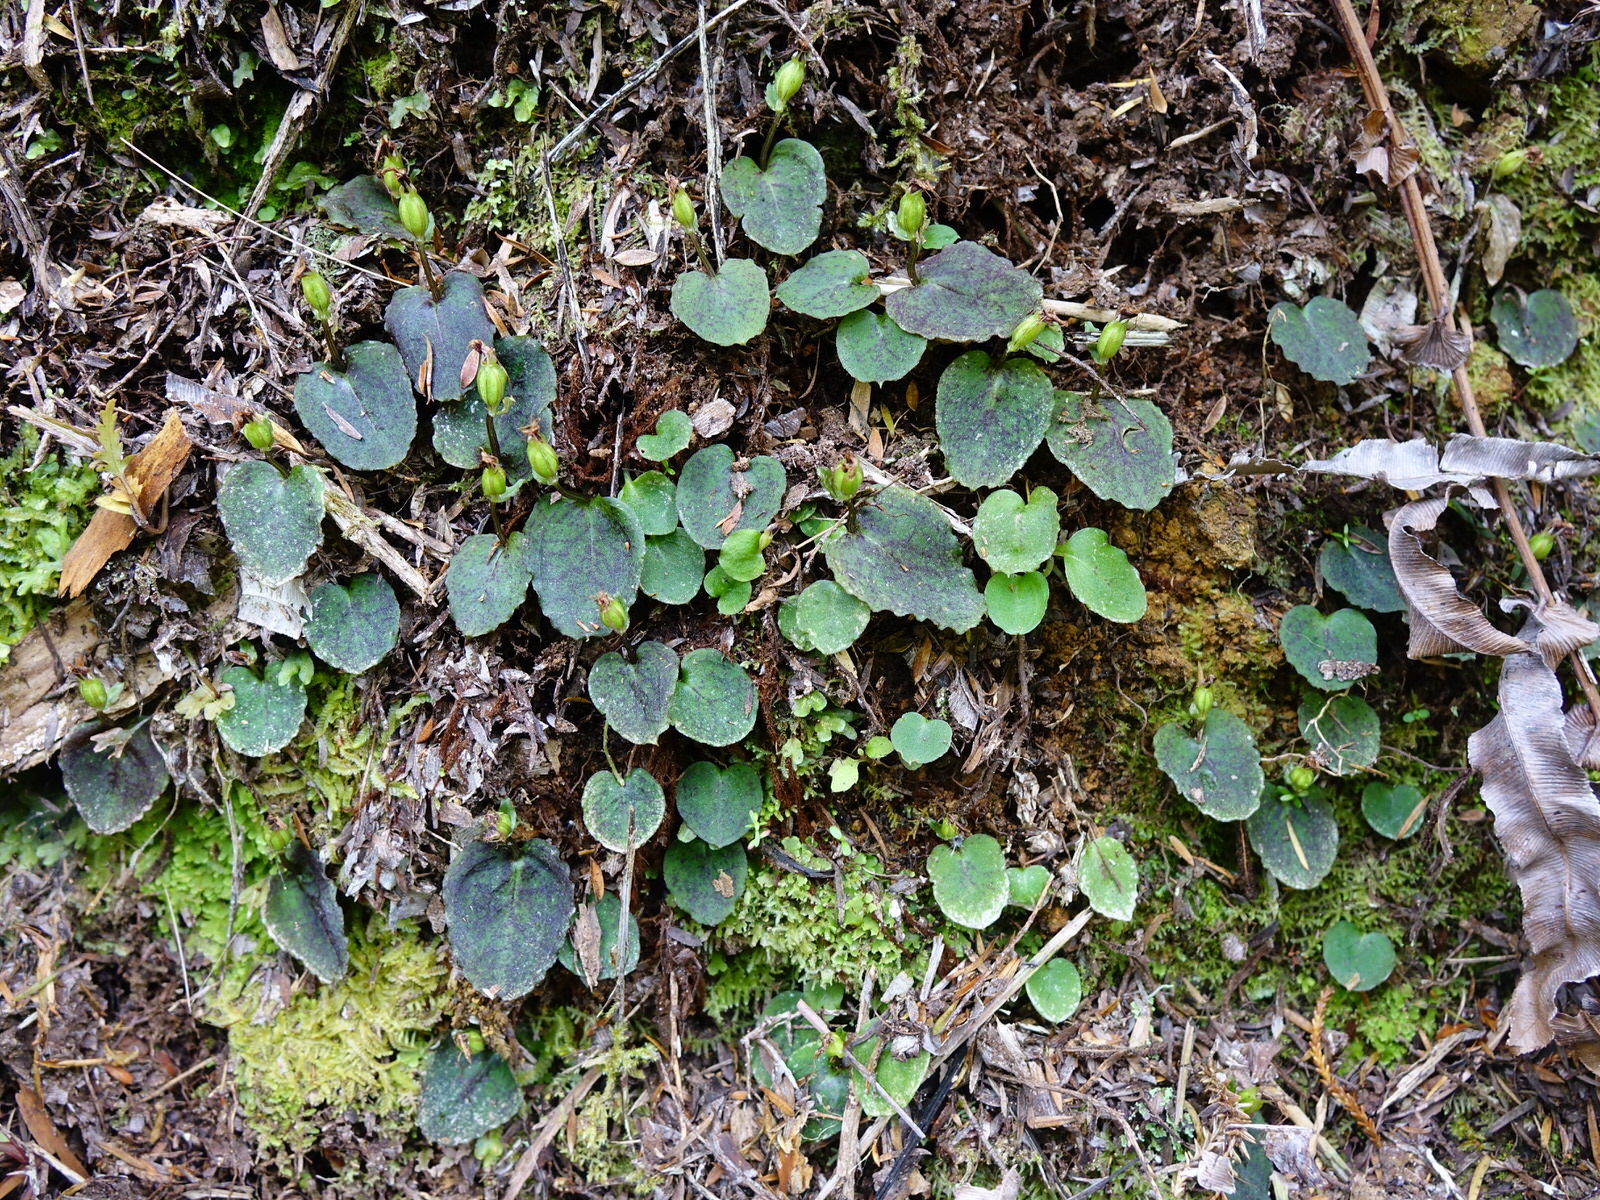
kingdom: Plantae
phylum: Tracheophyta
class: Liliopsida
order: Asparagales
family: Orchidaceae
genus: Corybas
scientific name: Corybas oblongus
